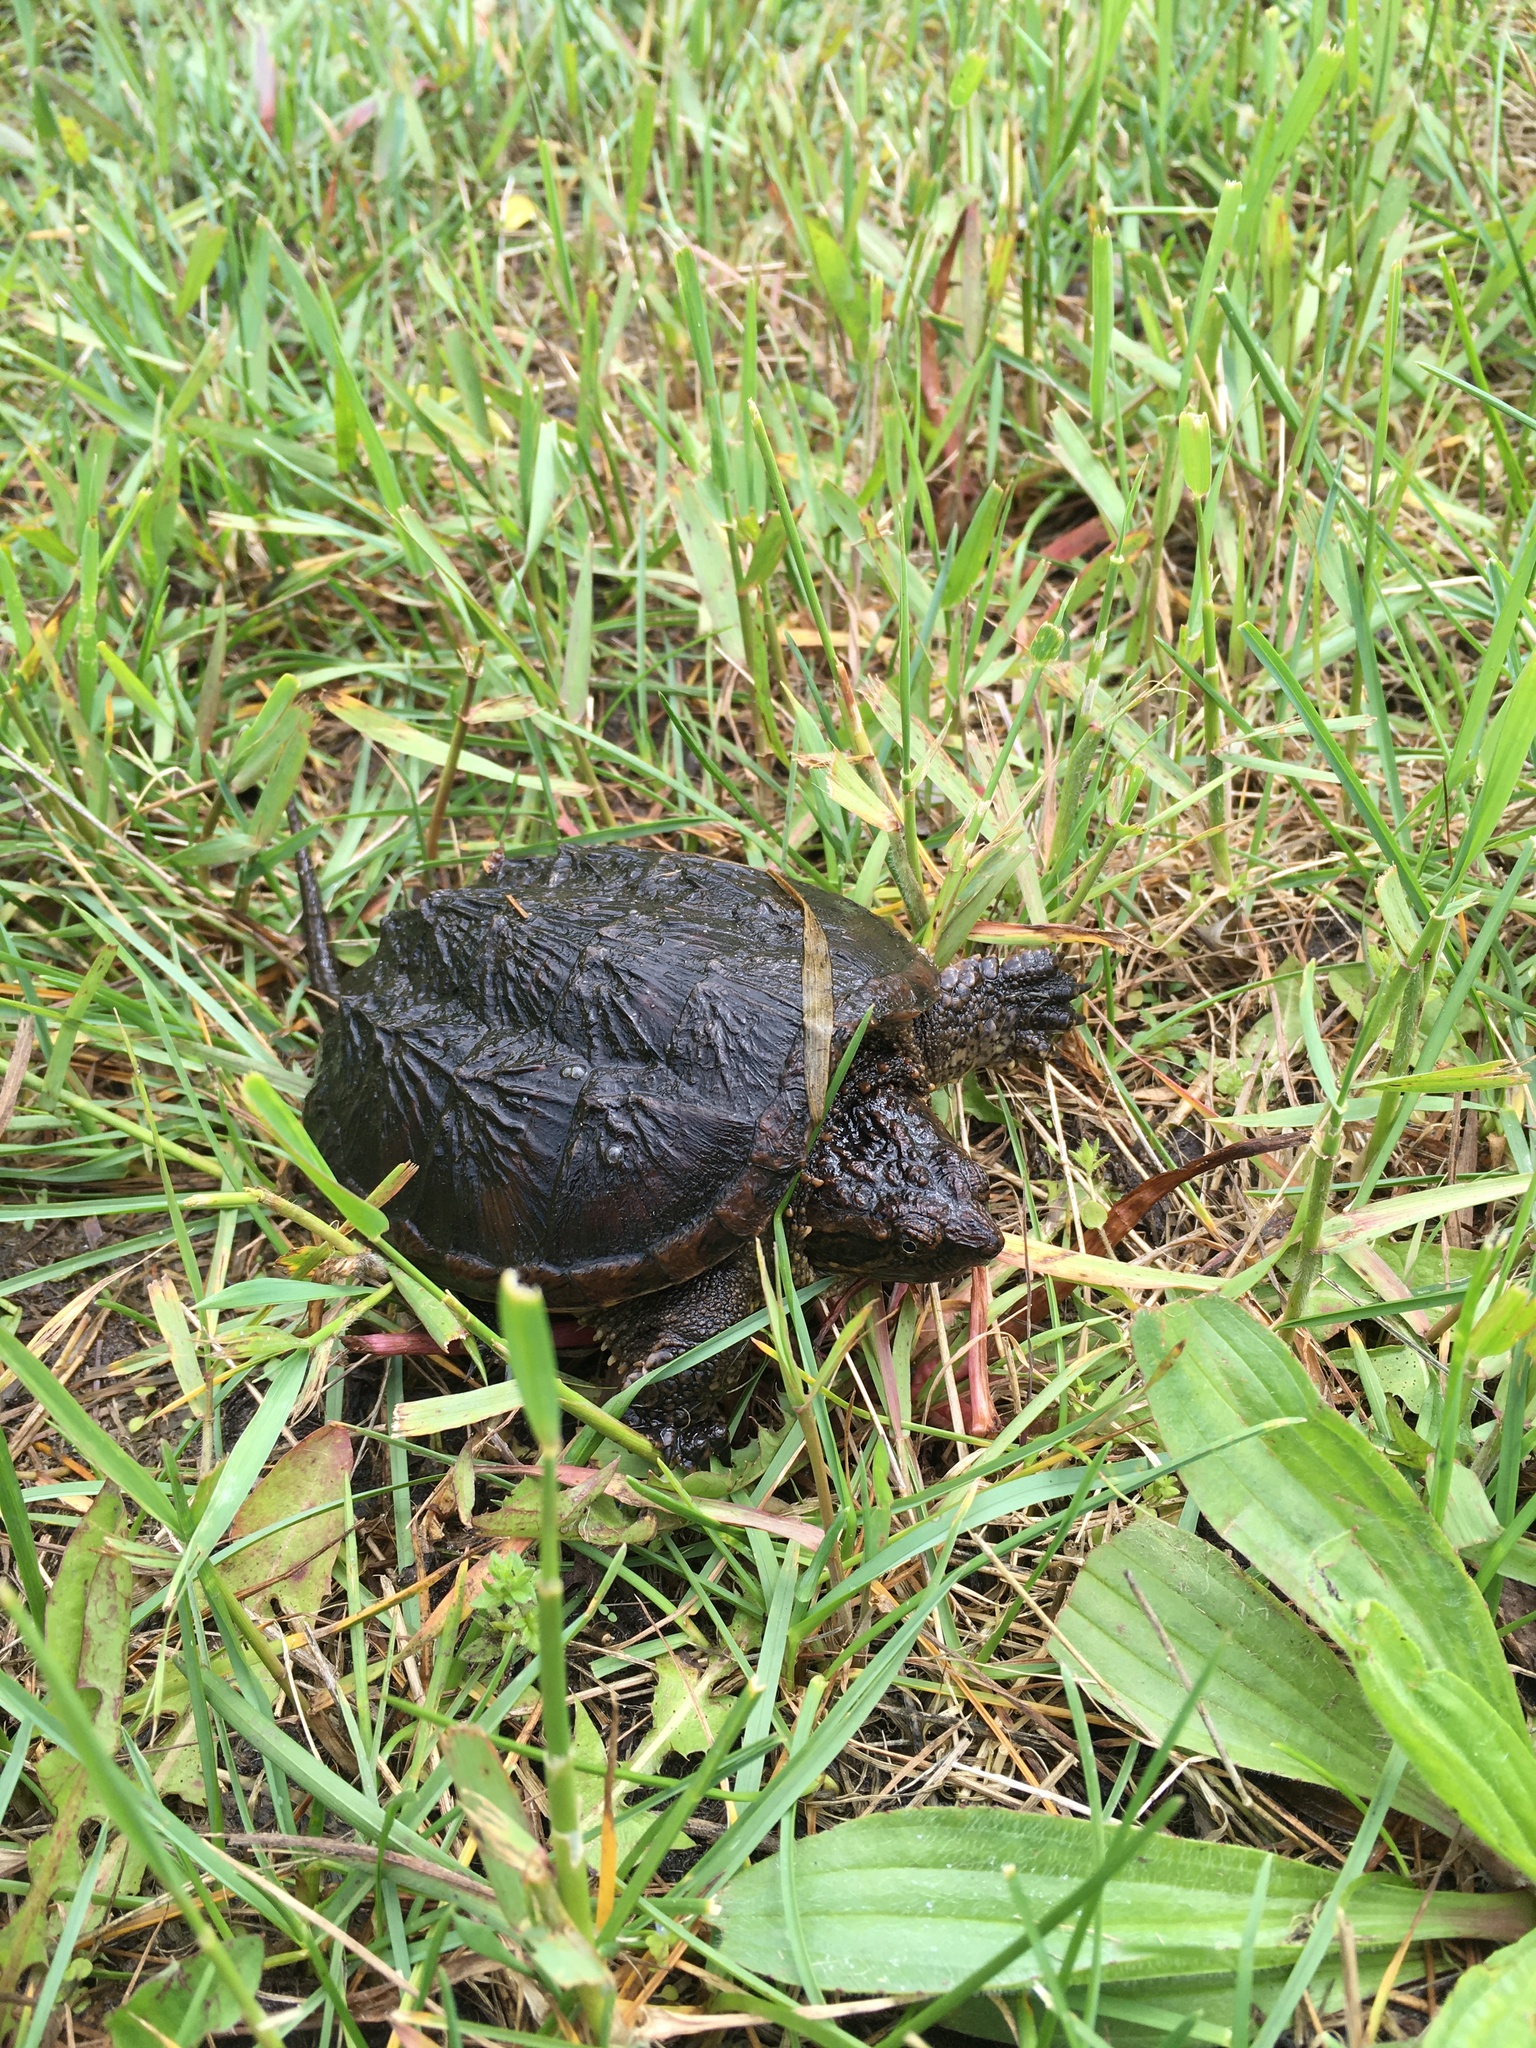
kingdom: Animalia
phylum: Chordata
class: Testudines
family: Chelydridae
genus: Chelydra
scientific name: Chelydra serpentina
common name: Common snapping turtle
